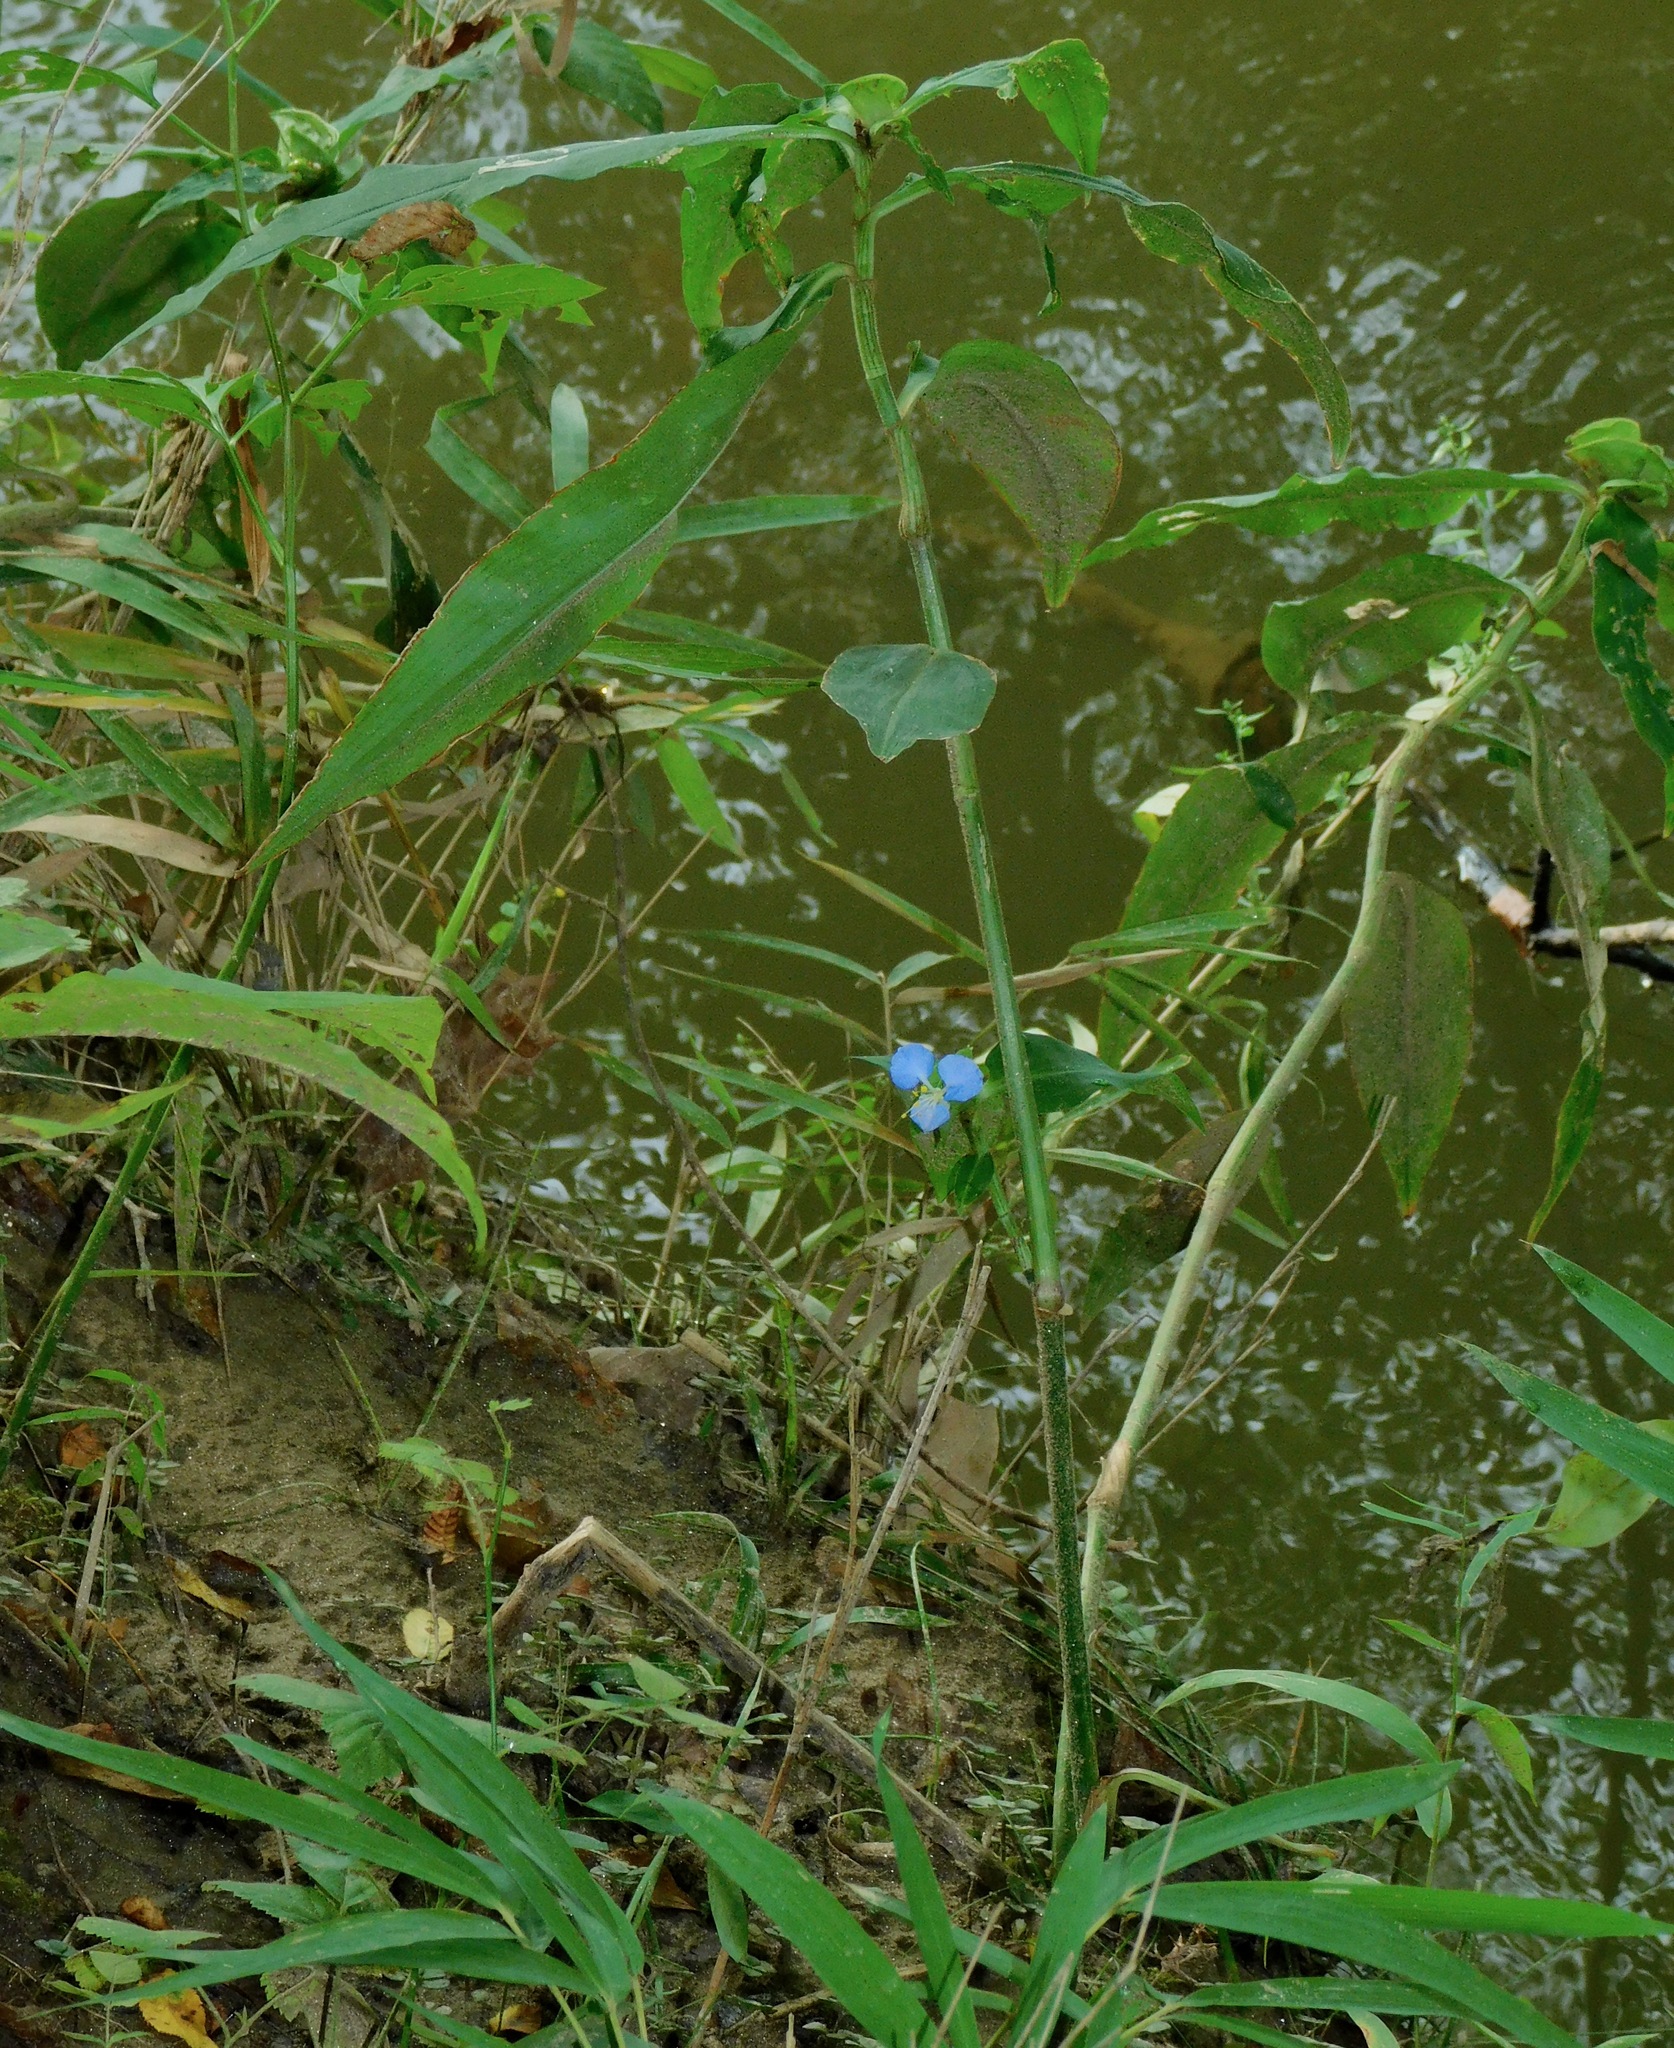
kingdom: Plantae
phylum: Tracheophyta
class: Liliopsida
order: Commelinales
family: Commelinaceae
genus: Commelina
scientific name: Commelina virginica
